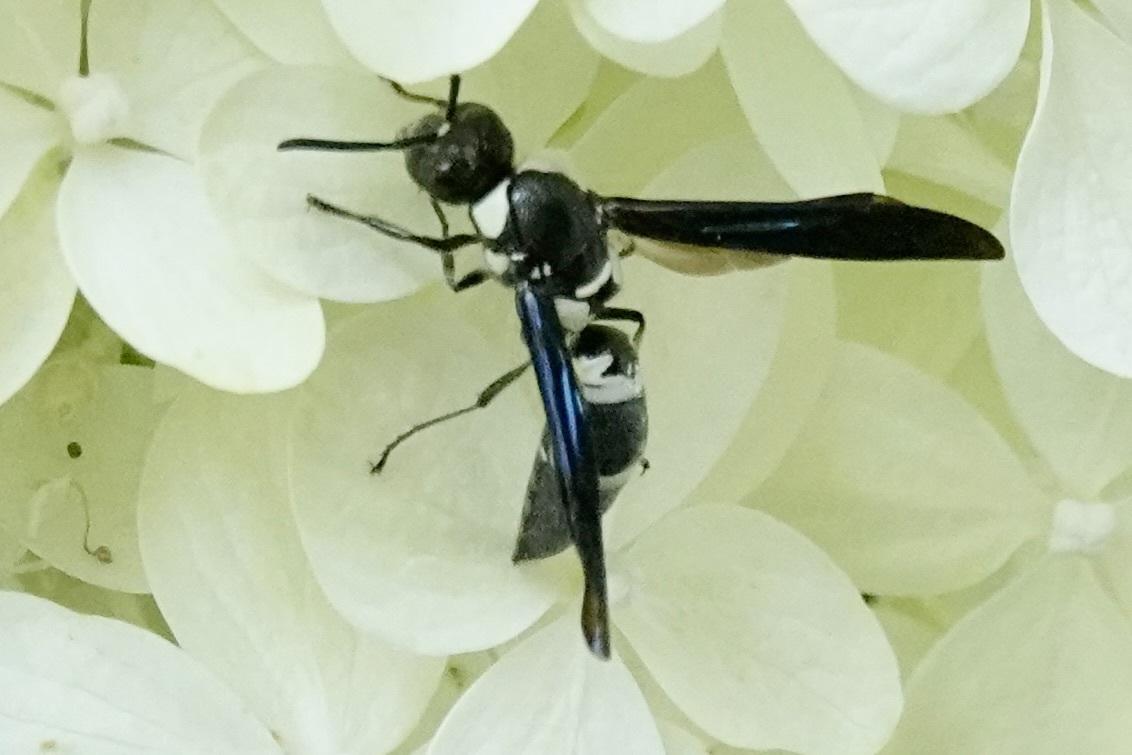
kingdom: Animalia
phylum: Arthropoda
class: Insecta
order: Hymenoptera
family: Eumenidae
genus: Pseudodynerus
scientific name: Pseudodynerus quadrisectus
